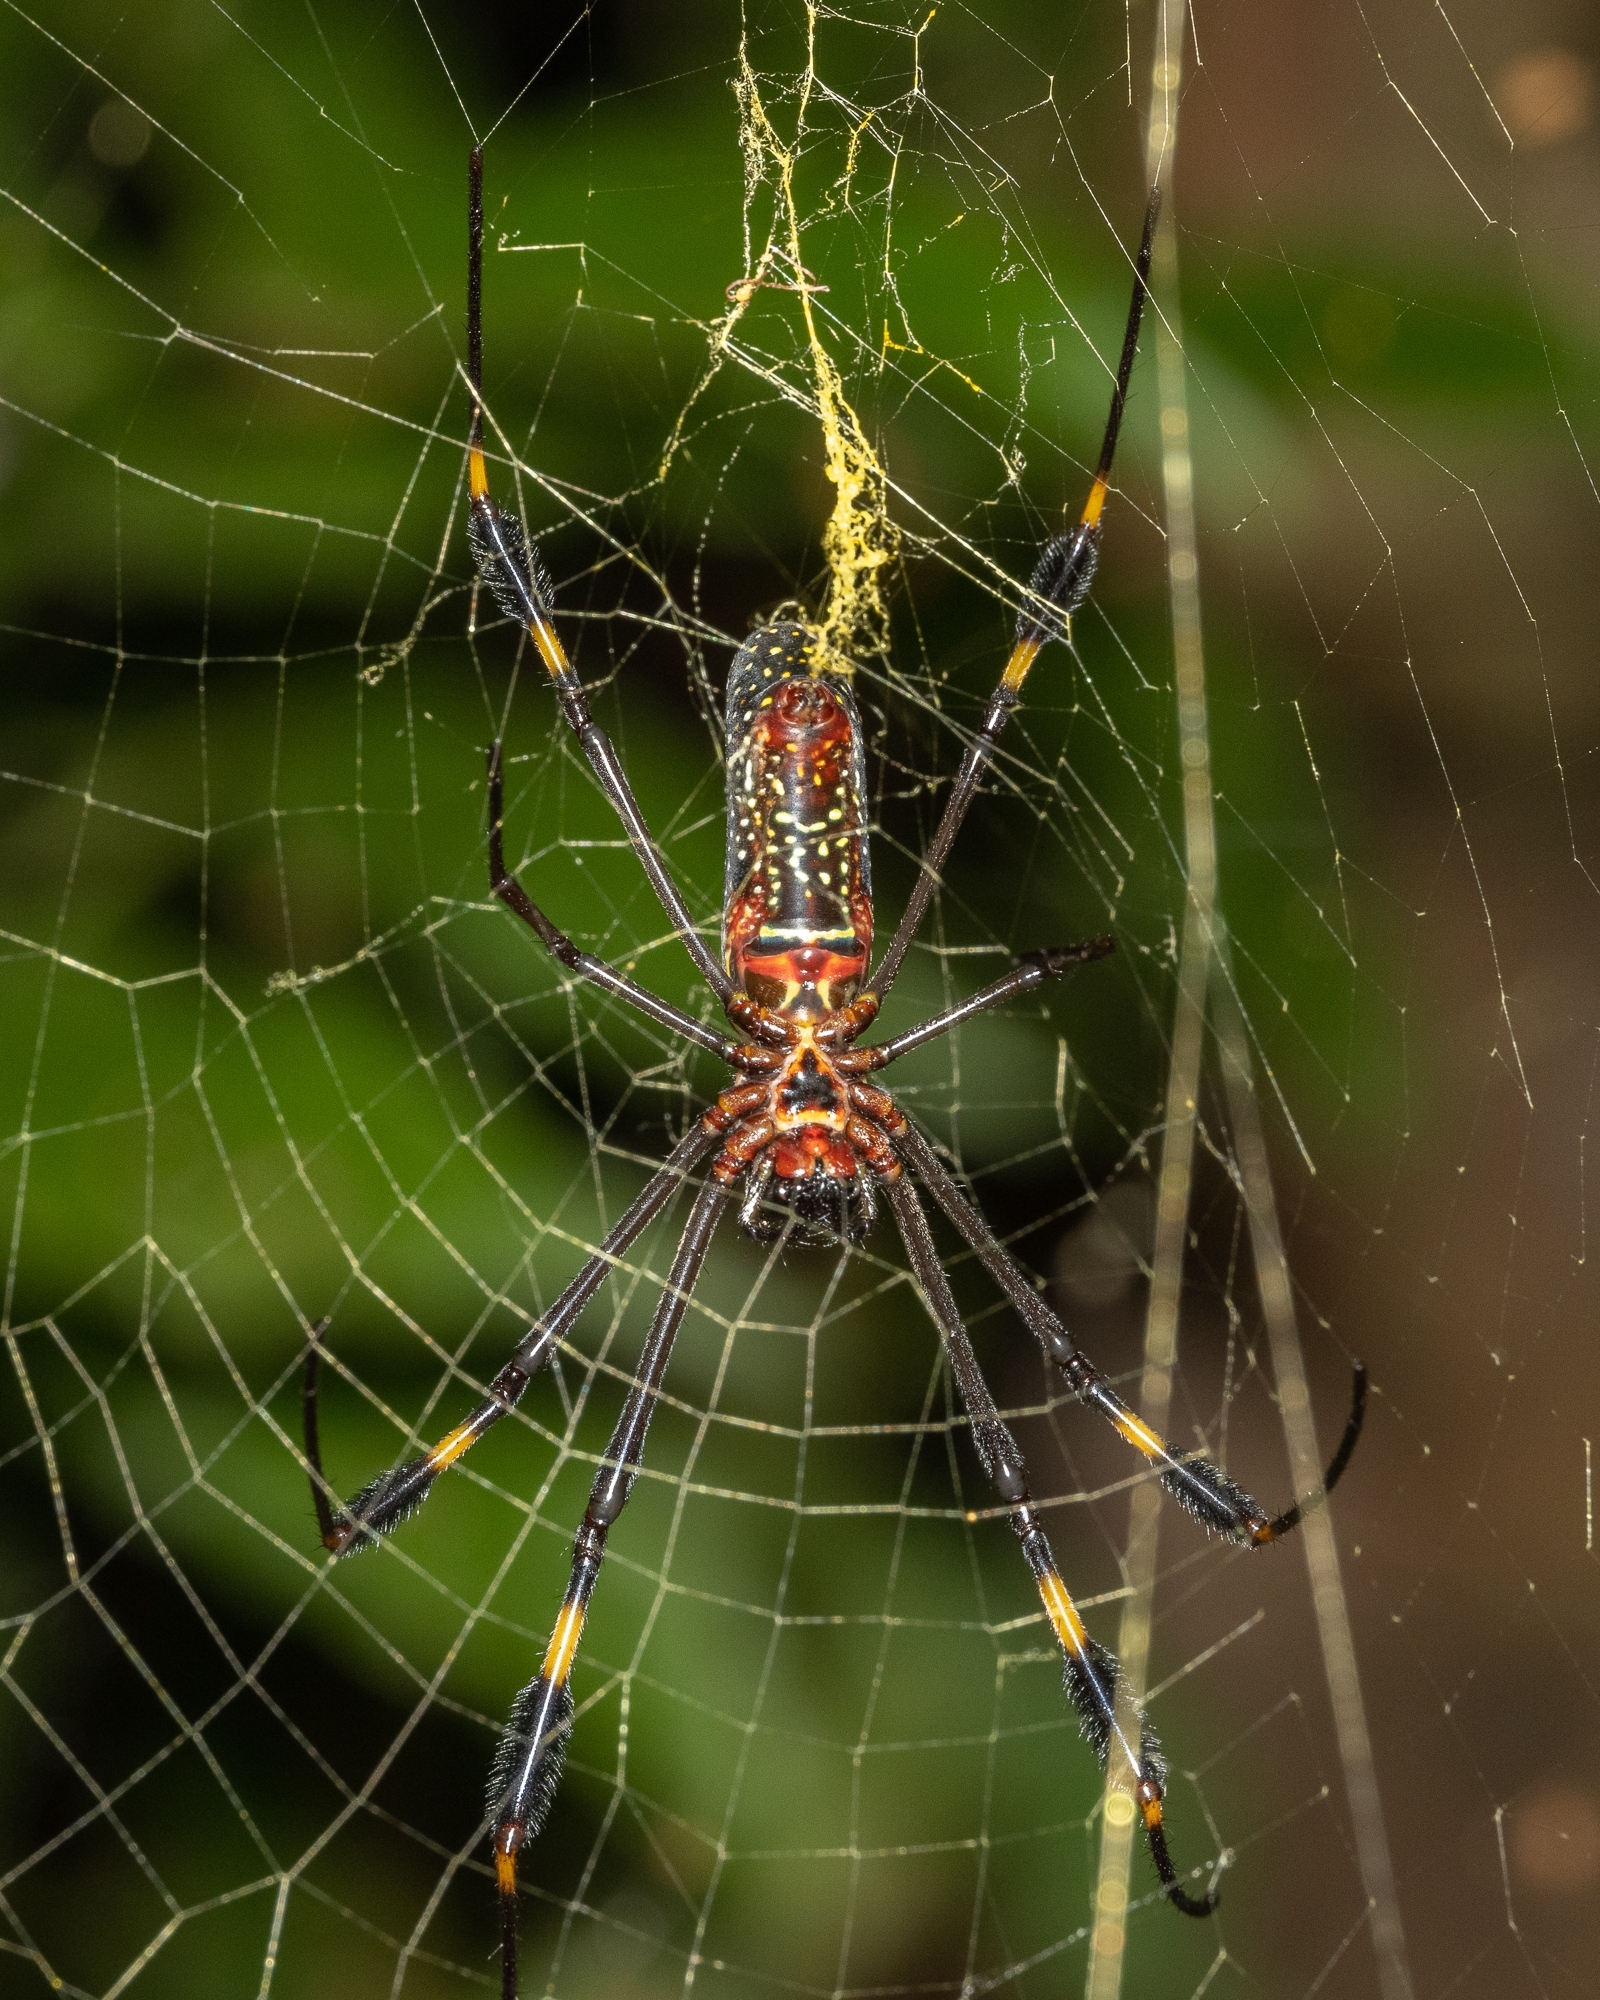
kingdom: Animalia
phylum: Arthropoda
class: Arachnida
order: Araneae
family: Araneidae
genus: Trichonephila
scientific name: Trichonephila clavipes
